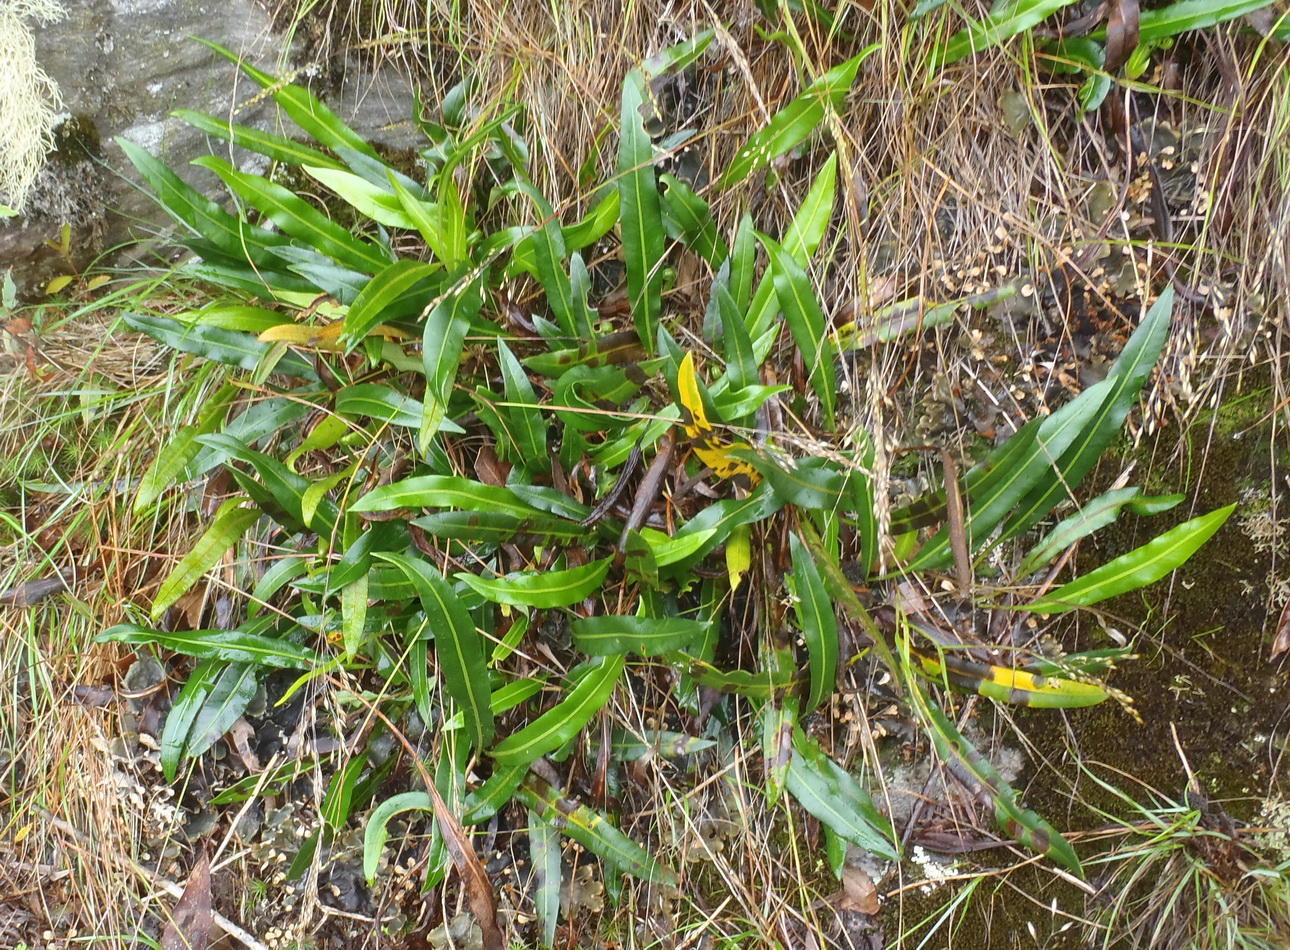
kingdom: Plantae
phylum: Tracheophyta
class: Polypodiopsida
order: Polypodiales
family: Dryopteridaceae
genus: Elaphoglossum
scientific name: Elaphoglossum acrostichoides
